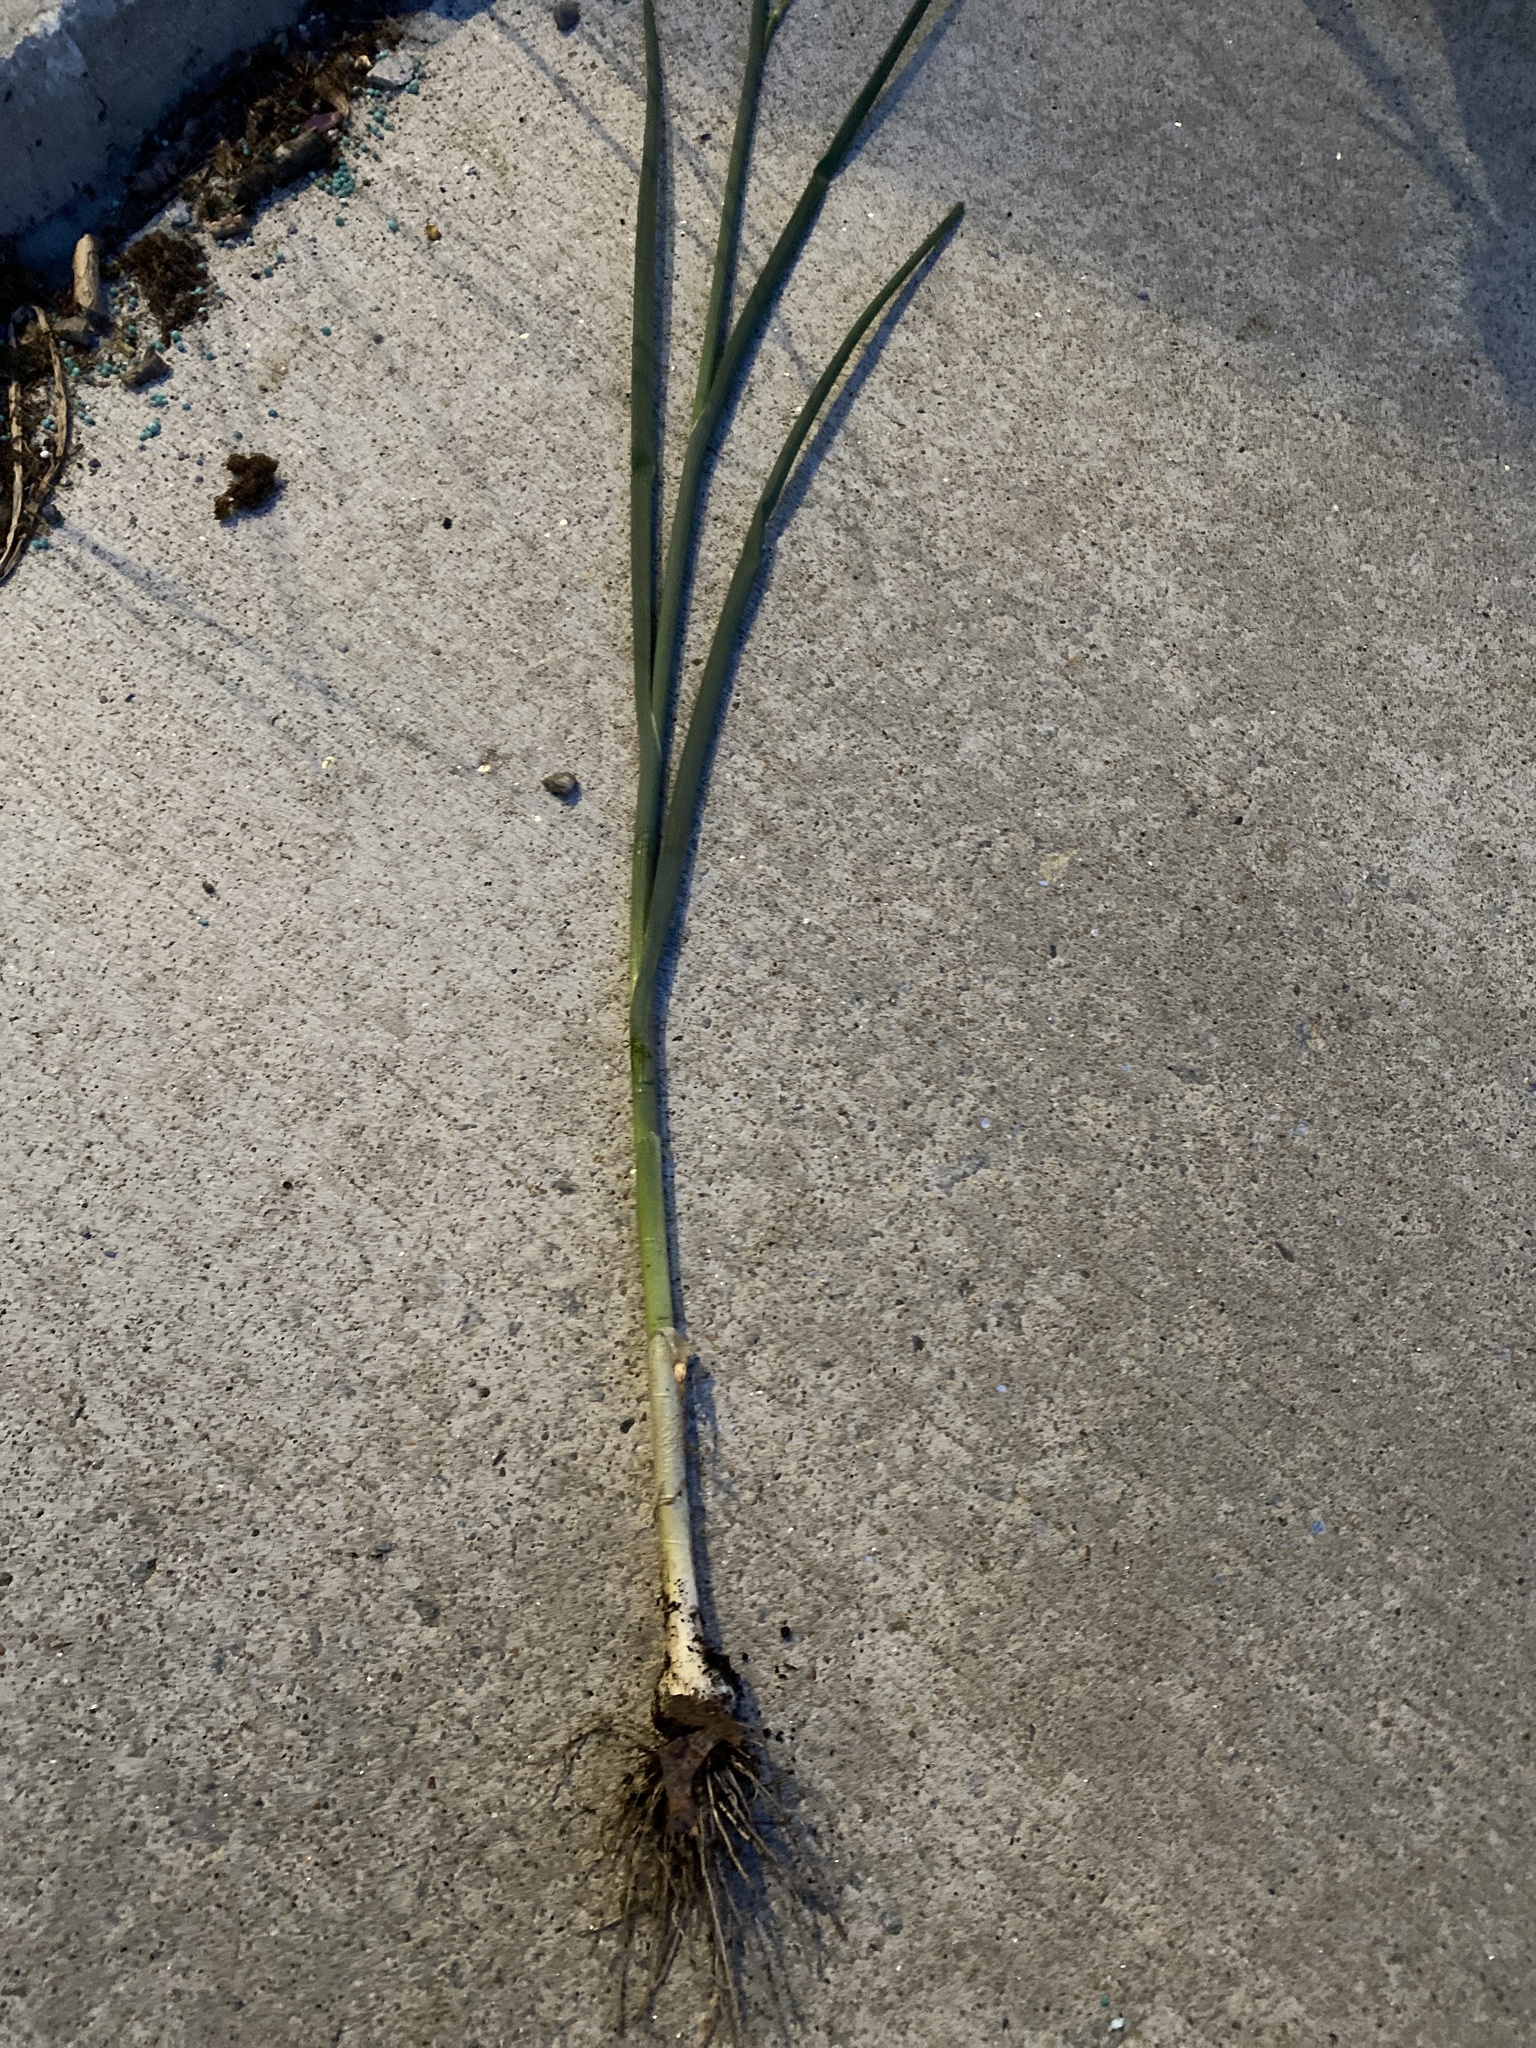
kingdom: Plantae
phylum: Tracheophyta
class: Liliopsida
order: Asparagales
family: Amaryllidaceae
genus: Allium
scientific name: Allium vineale
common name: Crow garlic
